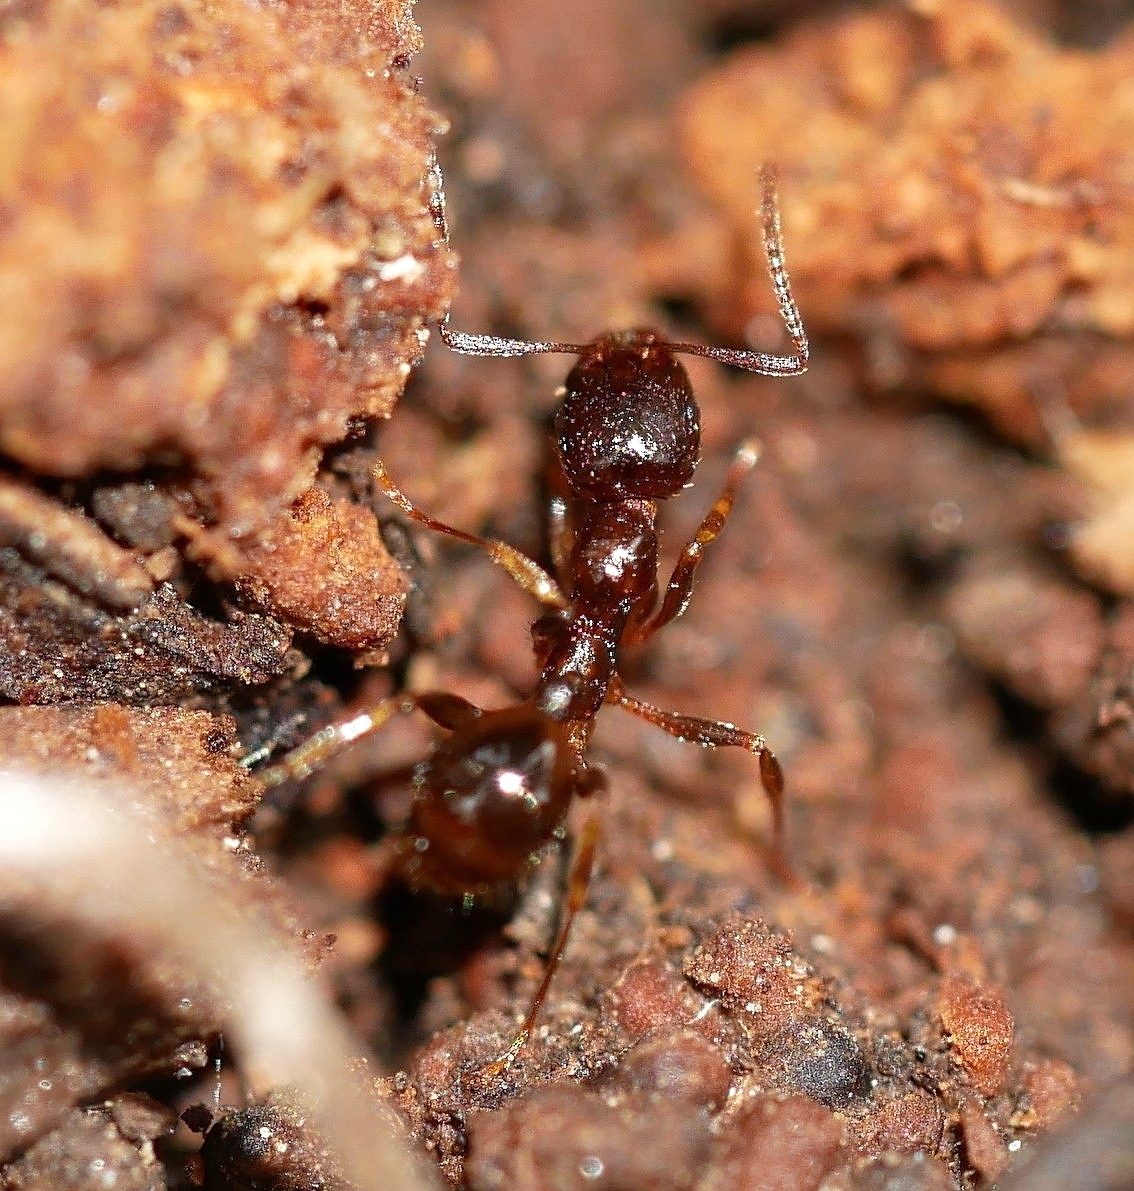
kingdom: Animalia
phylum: Arthropoda
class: Insecta
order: Hymenoptera
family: Formicidae
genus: Aphaenogaster
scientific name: Aphaenogaster occidentalis
